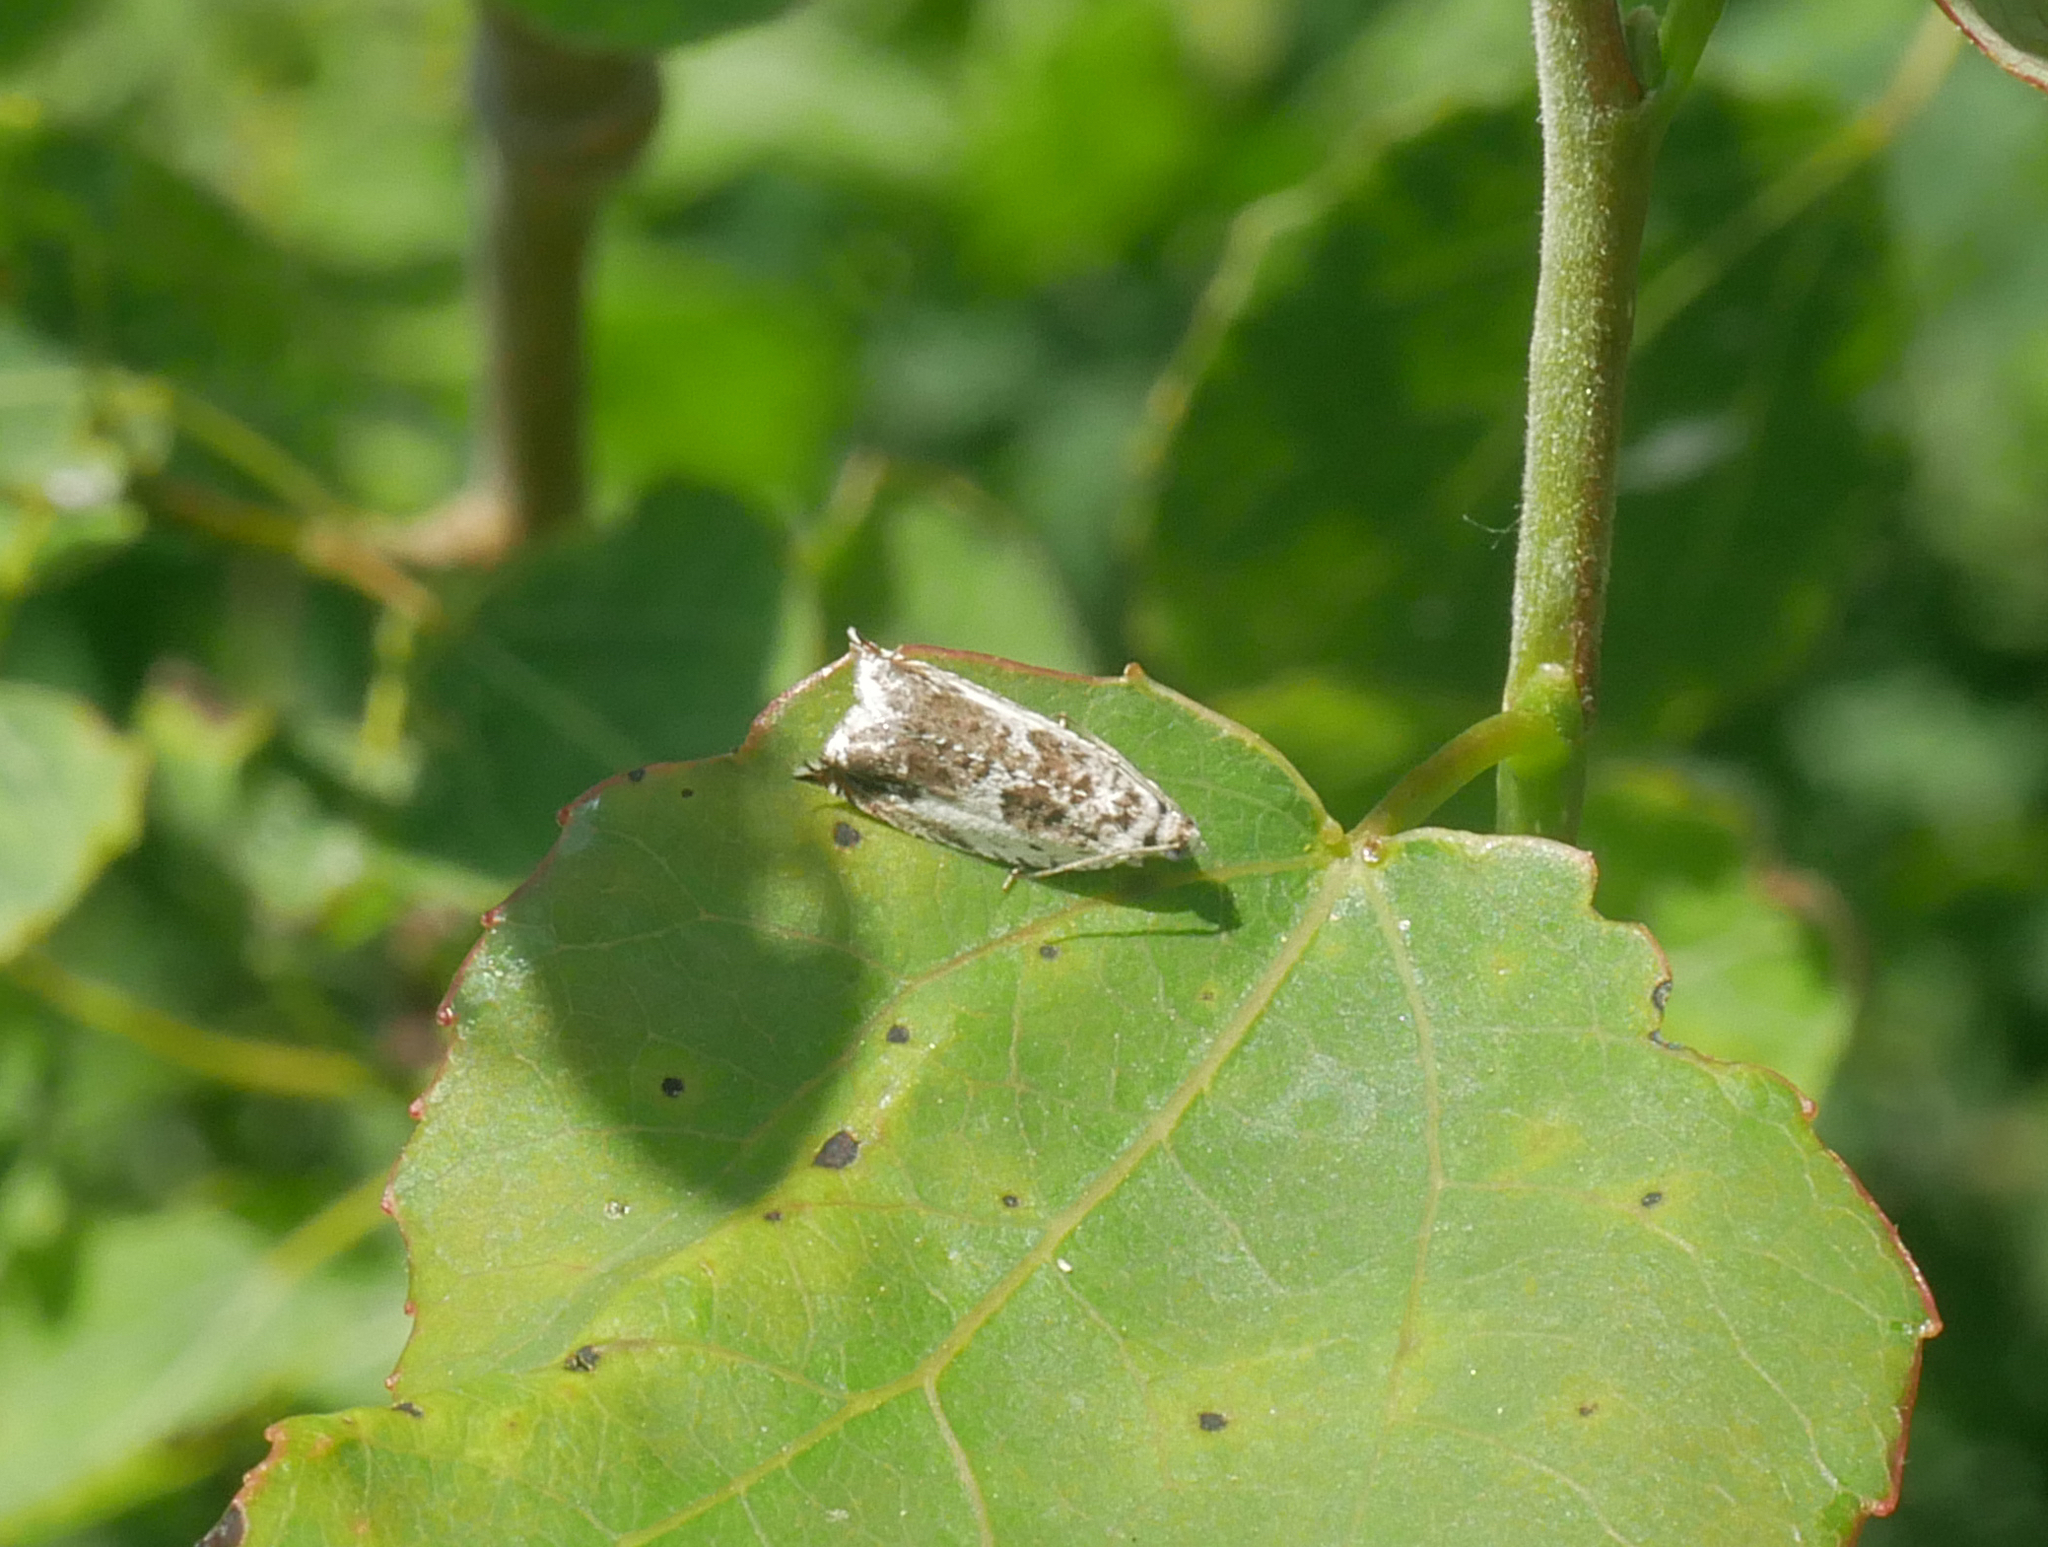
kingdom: Animalia
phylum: Arthropoda
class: Insecta
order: Lepidoptera
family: Tortricidae
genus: Ancylis
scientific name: Ancylis laetana
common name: Aspen roller
